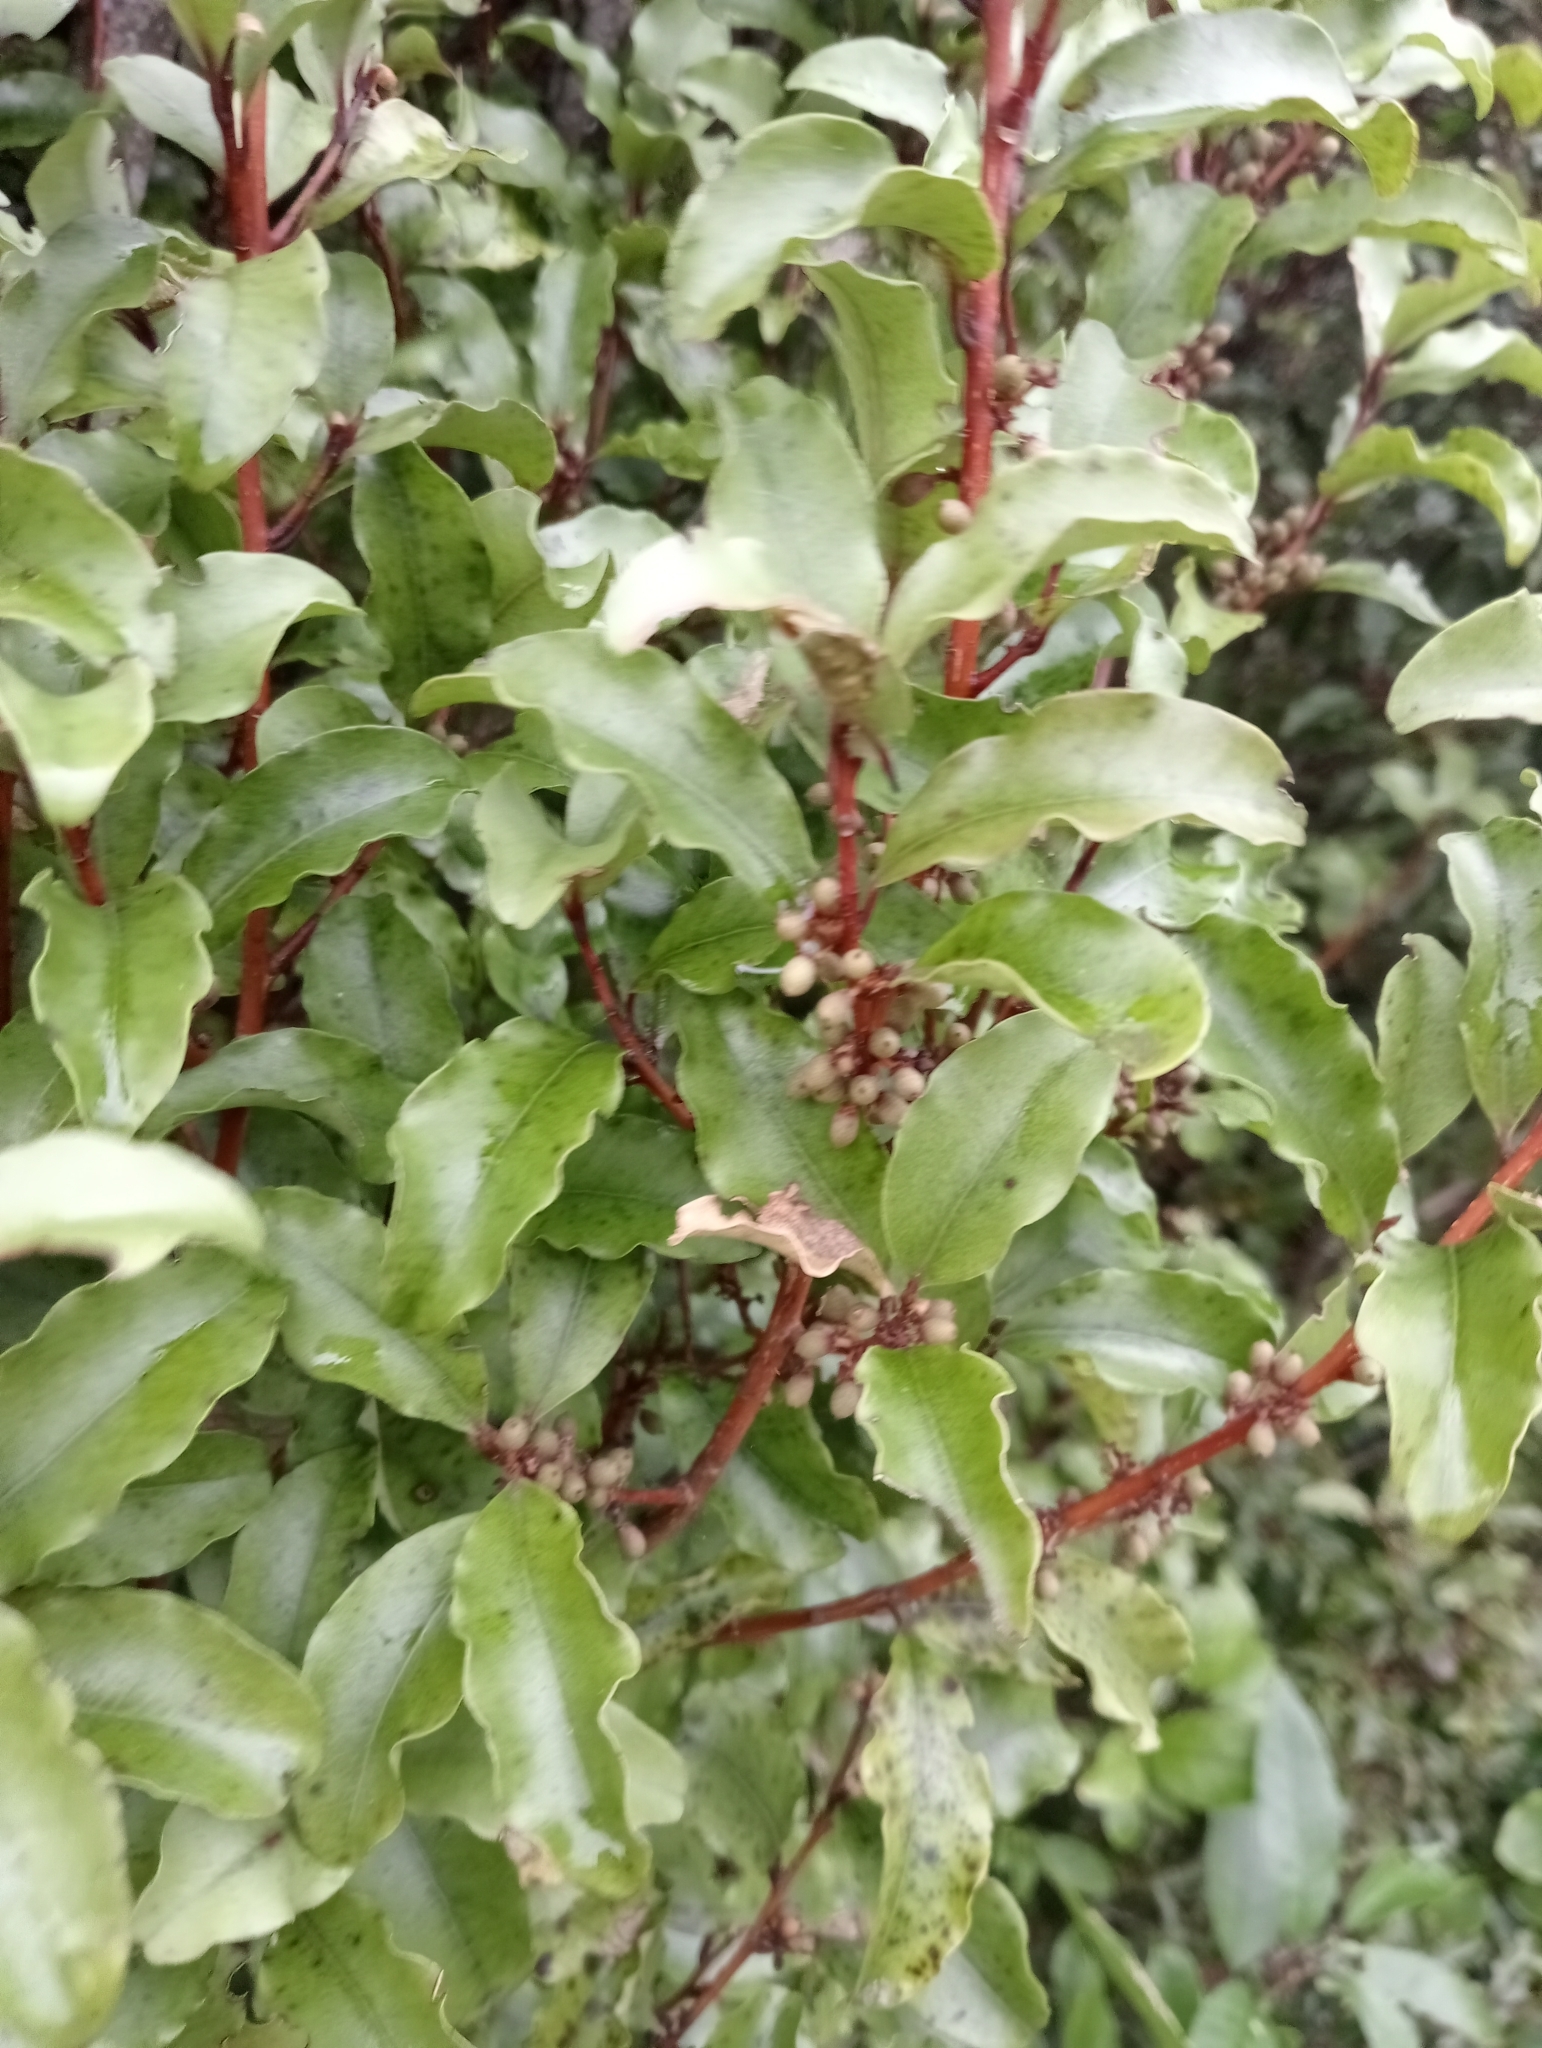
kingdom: Plantae
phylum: Tracheophyta
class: Magnoliopsida
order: Ericales
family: Primulaceae
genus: Myrsine
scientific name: Myrsine australis
